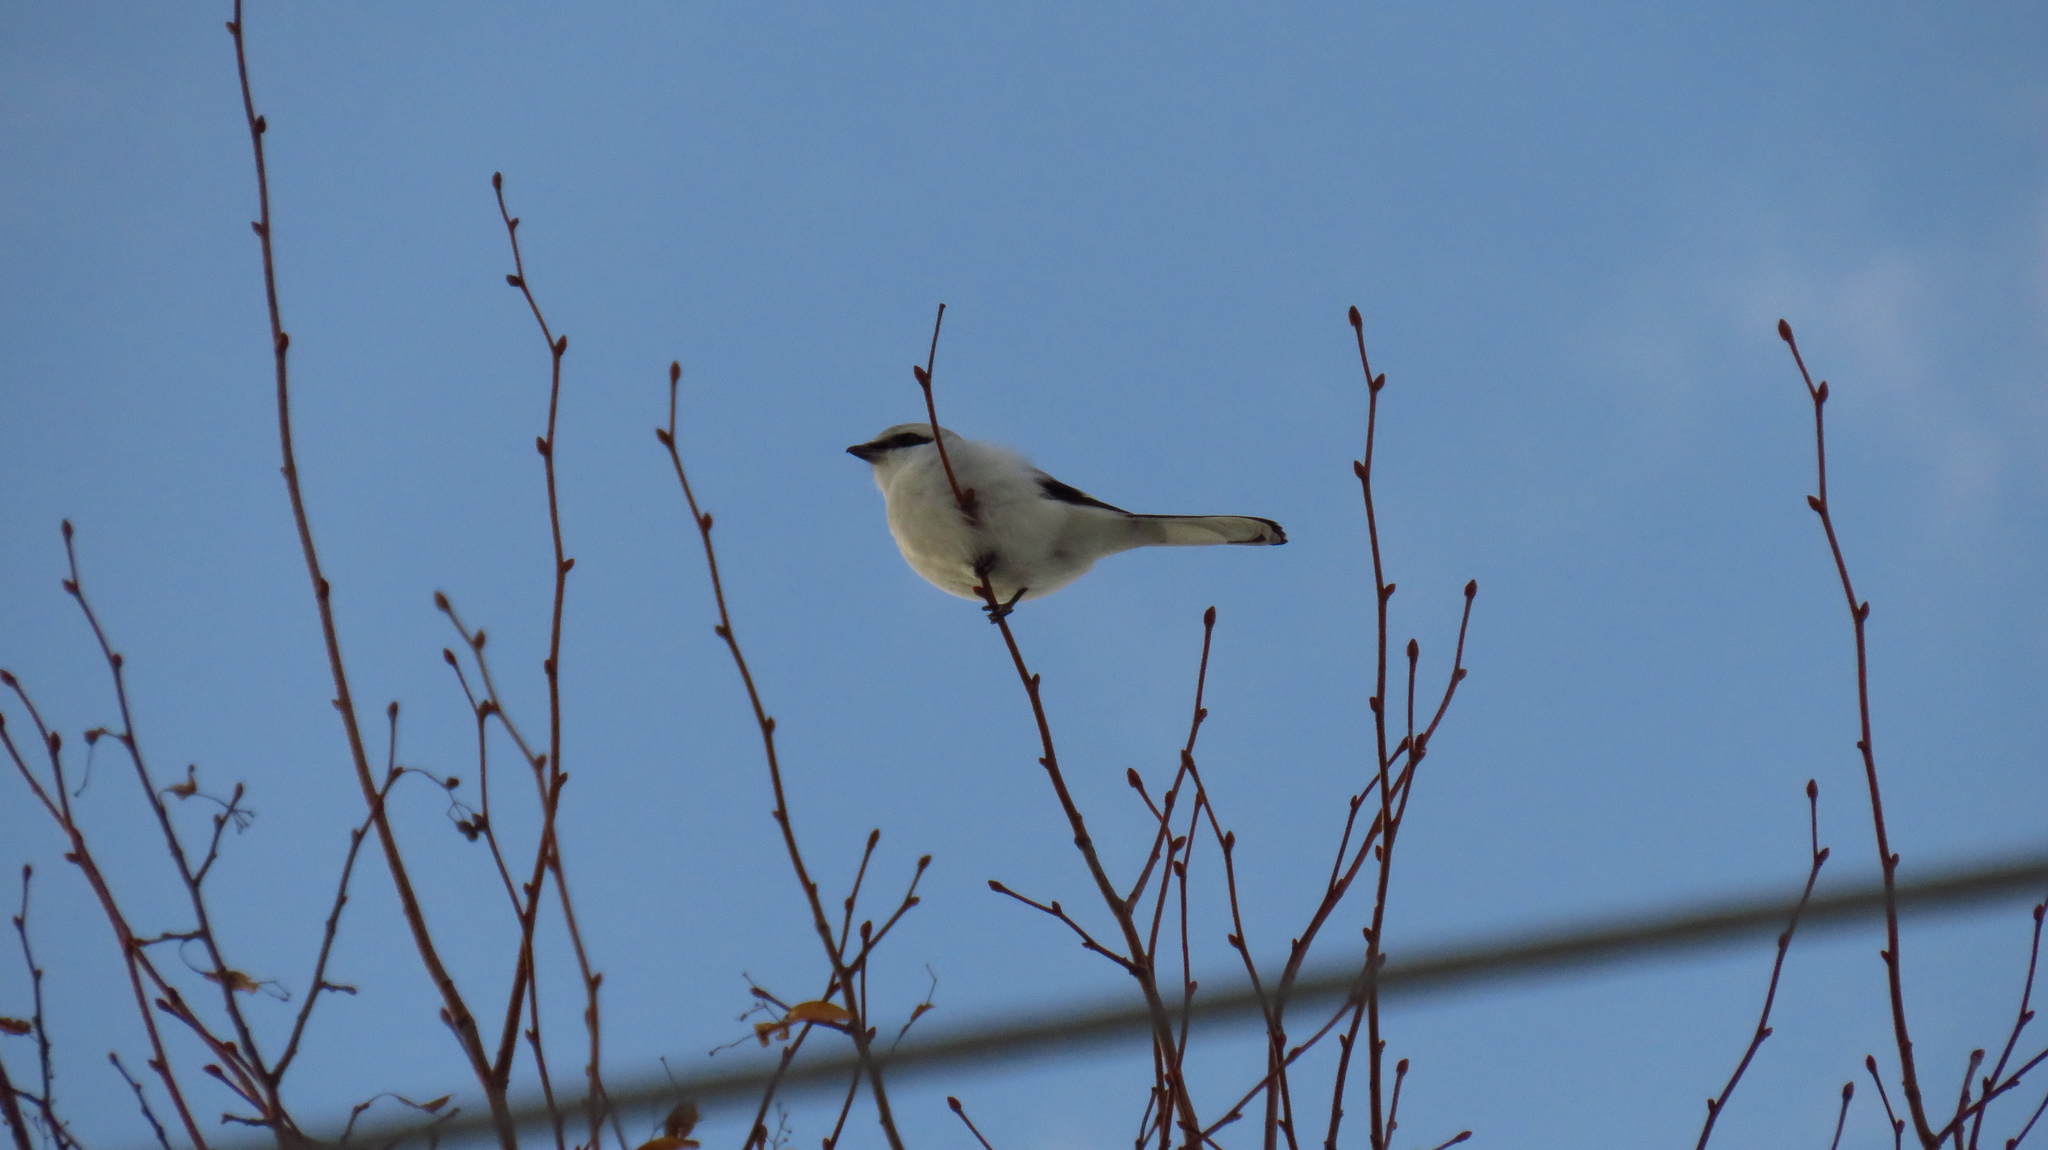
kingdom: Animalia
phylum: Chordata
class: Aves
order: Passeriformes
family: Laniidae
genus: Lanius
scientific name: Lanius excubitor
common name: Great grey shrike
